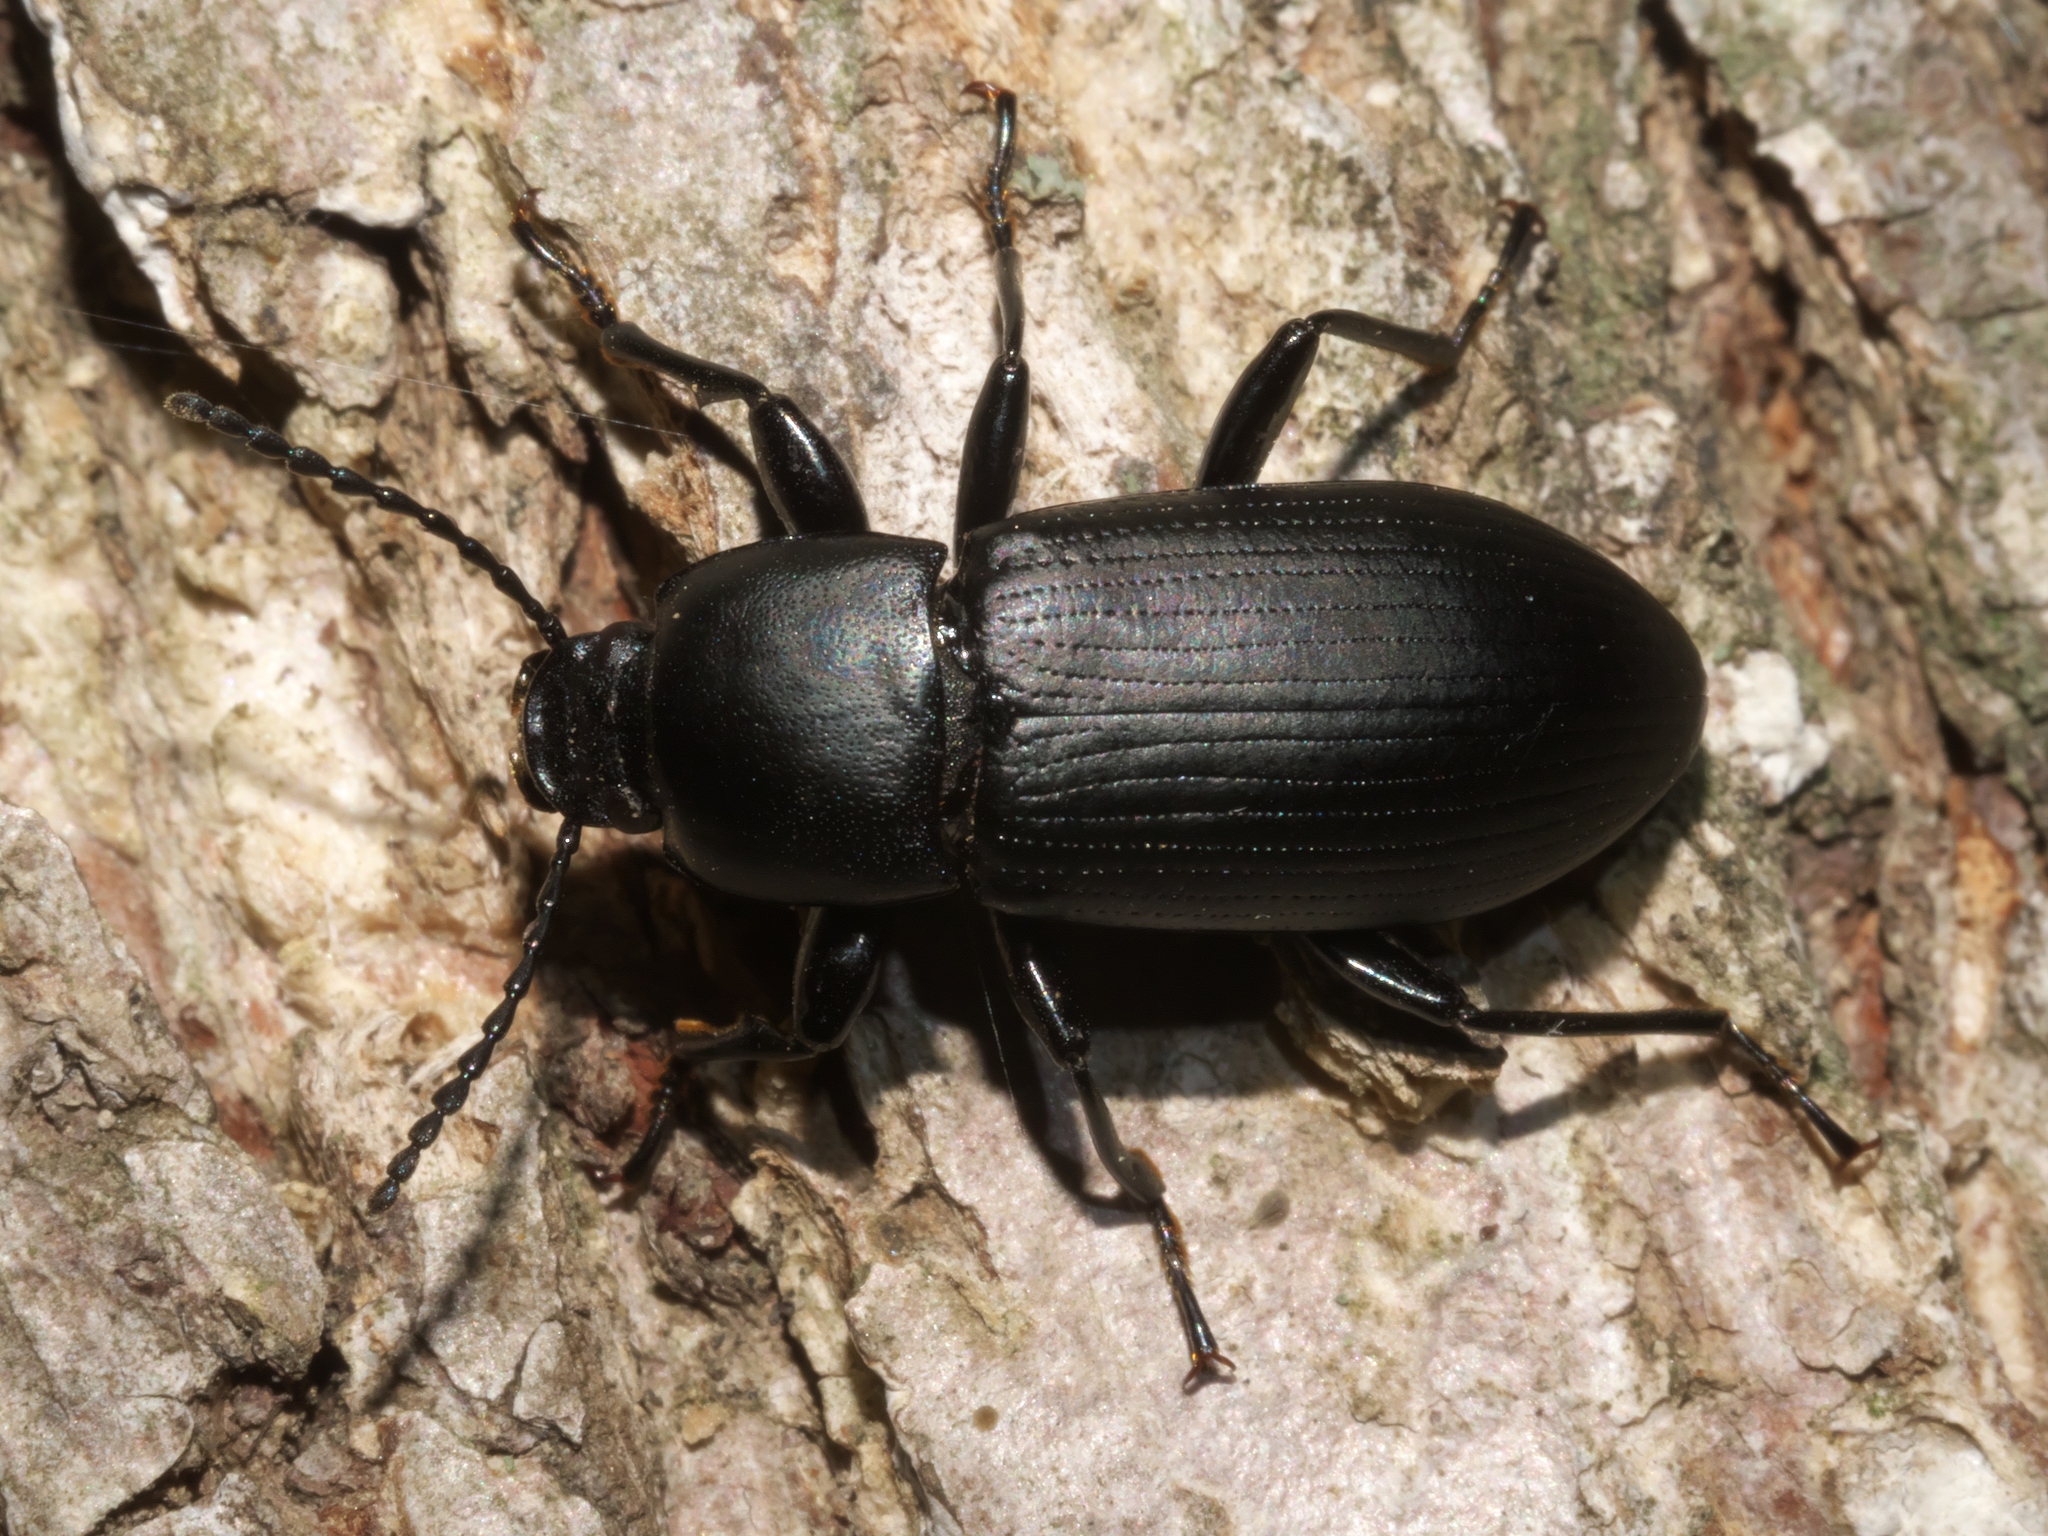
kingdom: Animalia
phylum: Arthropoda
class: Insecta
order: Coleoptera
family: Tenebrionidae
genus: Centronopus
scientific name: Centronopus opacus
